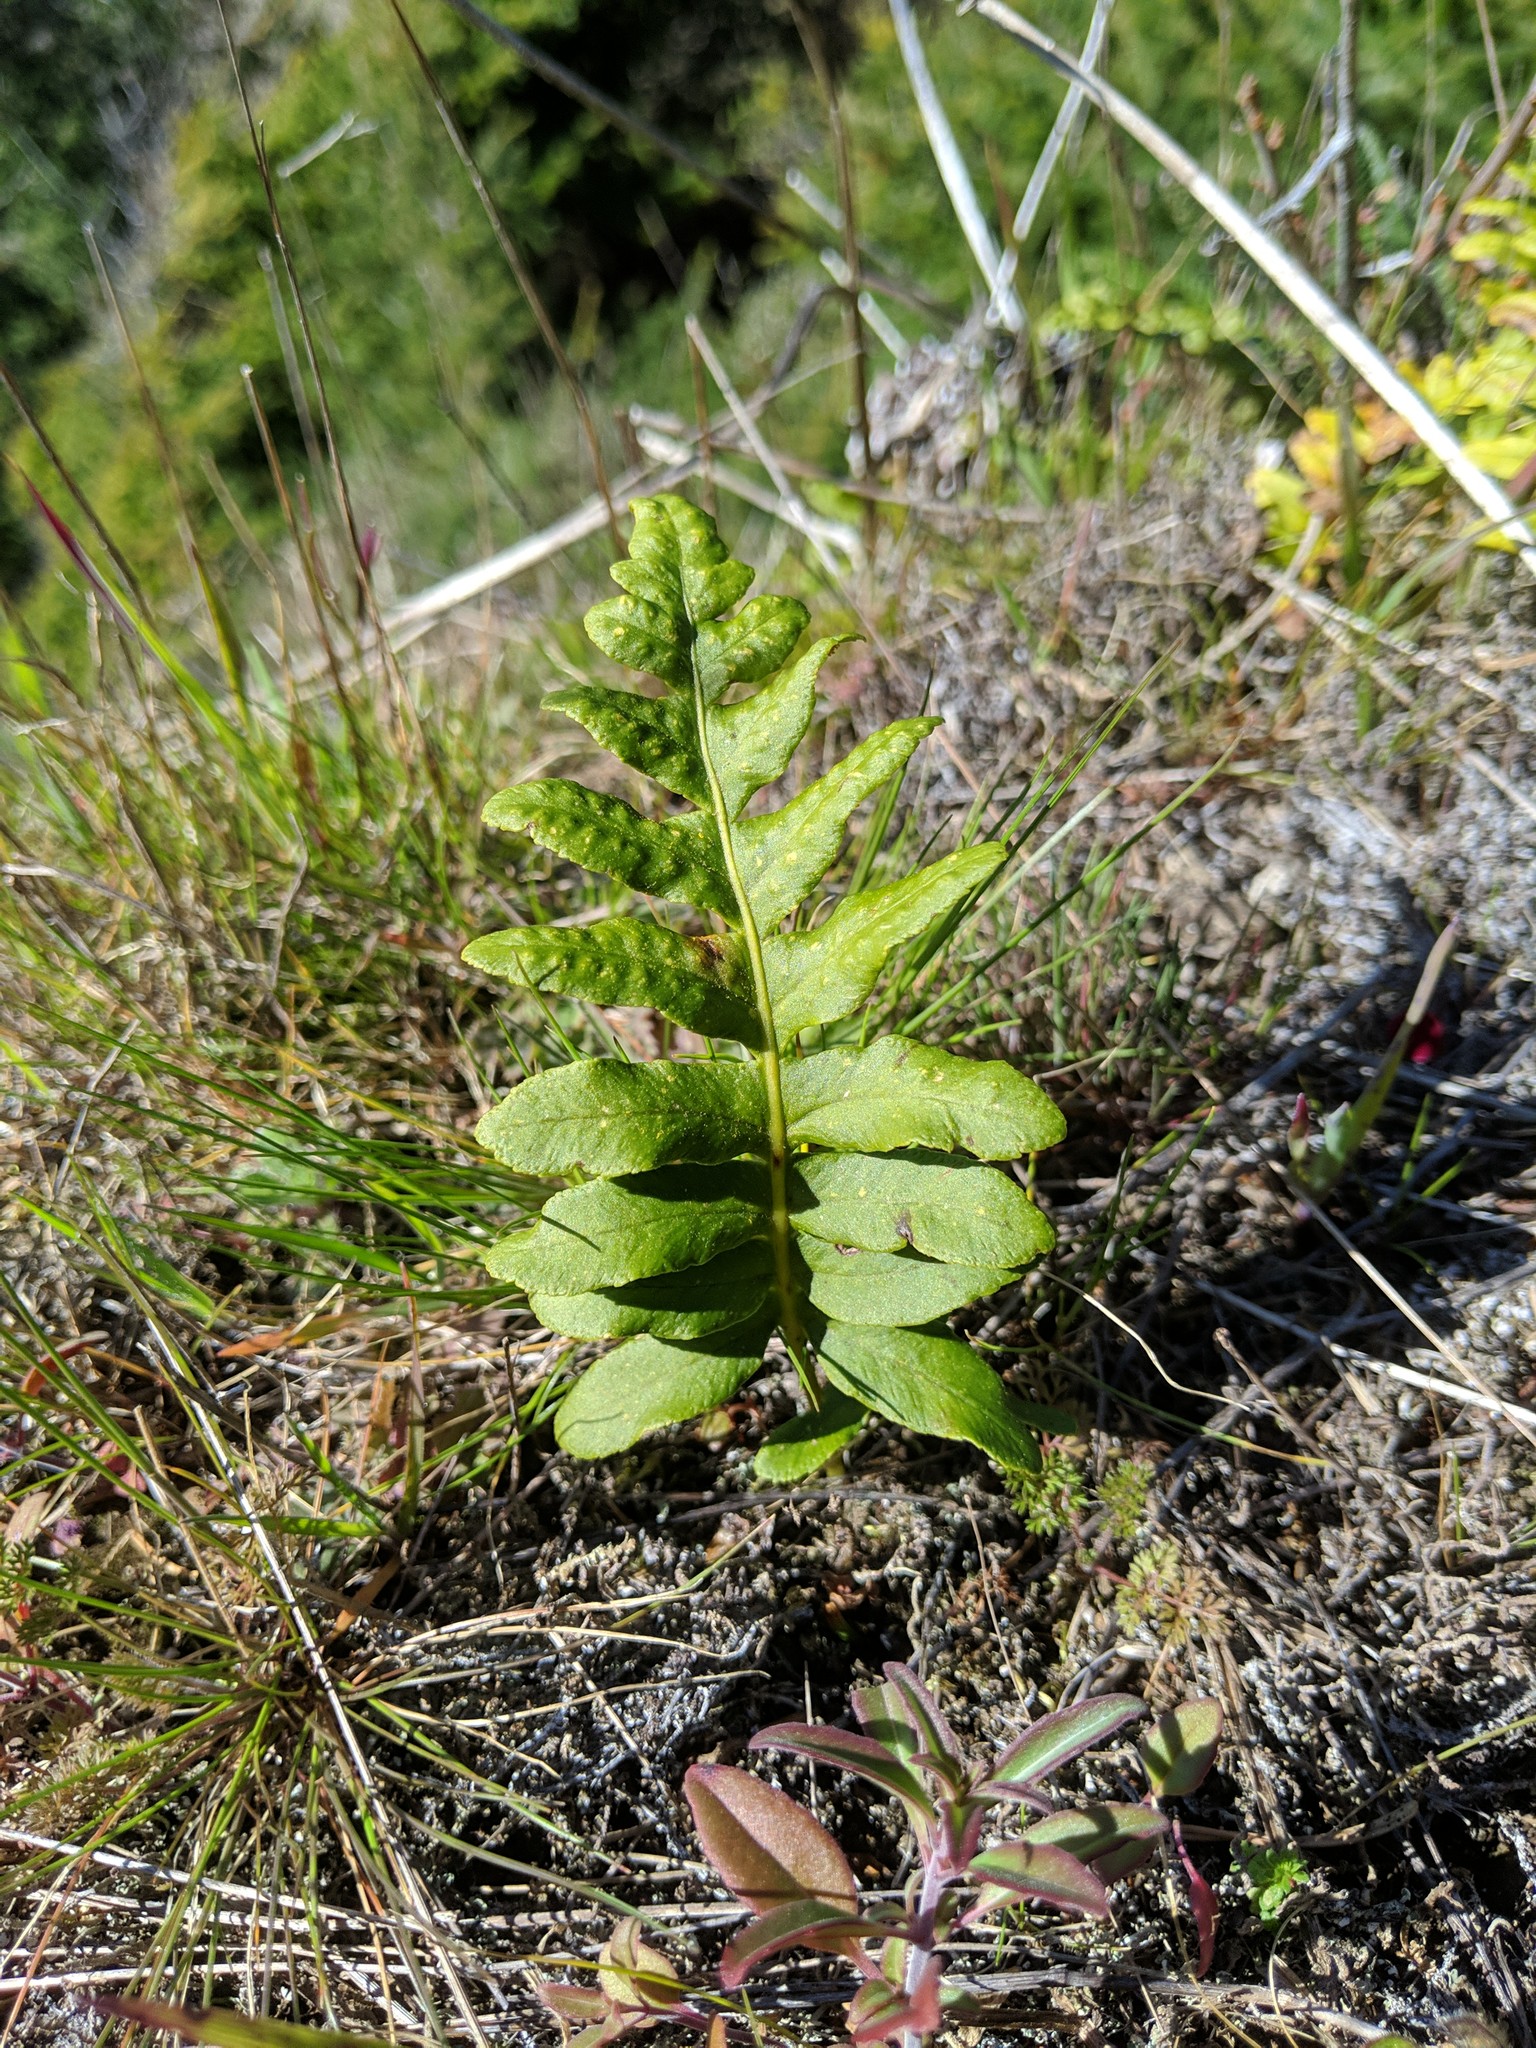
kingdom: Plantae
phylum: Tracheophyta
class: Polypodiopsida
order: Polypodiales
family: Polypodiaceae
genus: Polypodium
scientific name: Polypodium calirhiza
